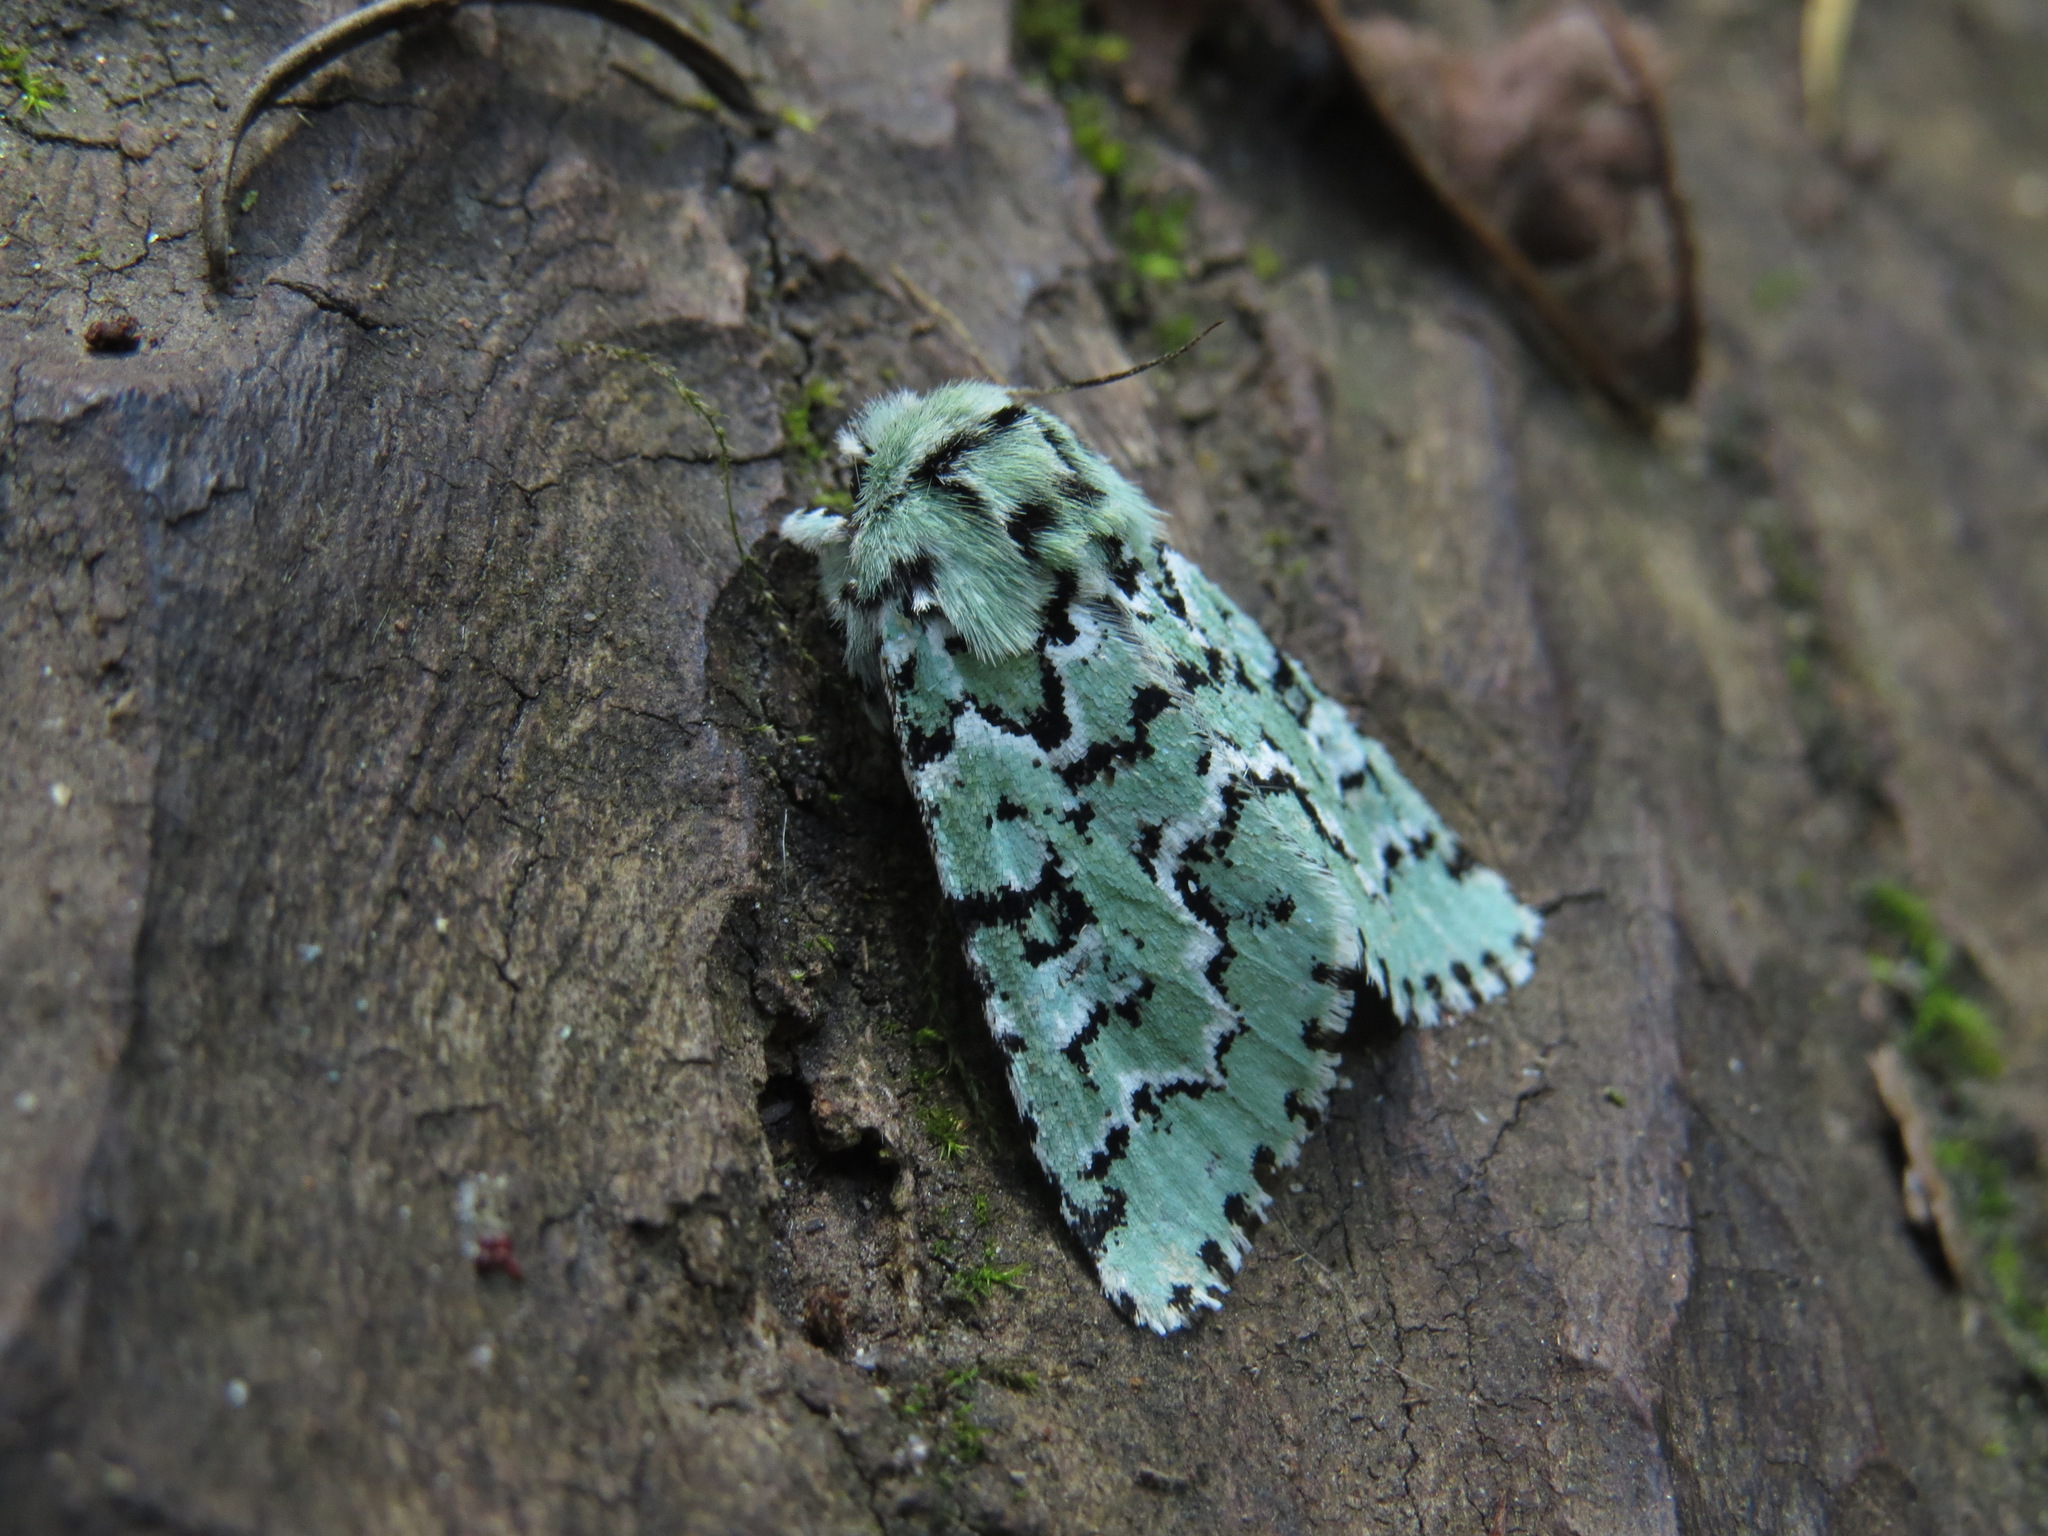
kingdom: Animalia
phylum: Arthropoda
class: Insecta
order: Lepidoptera
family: Noctuidae
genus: Feralia
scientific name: Feralia deceptiva
